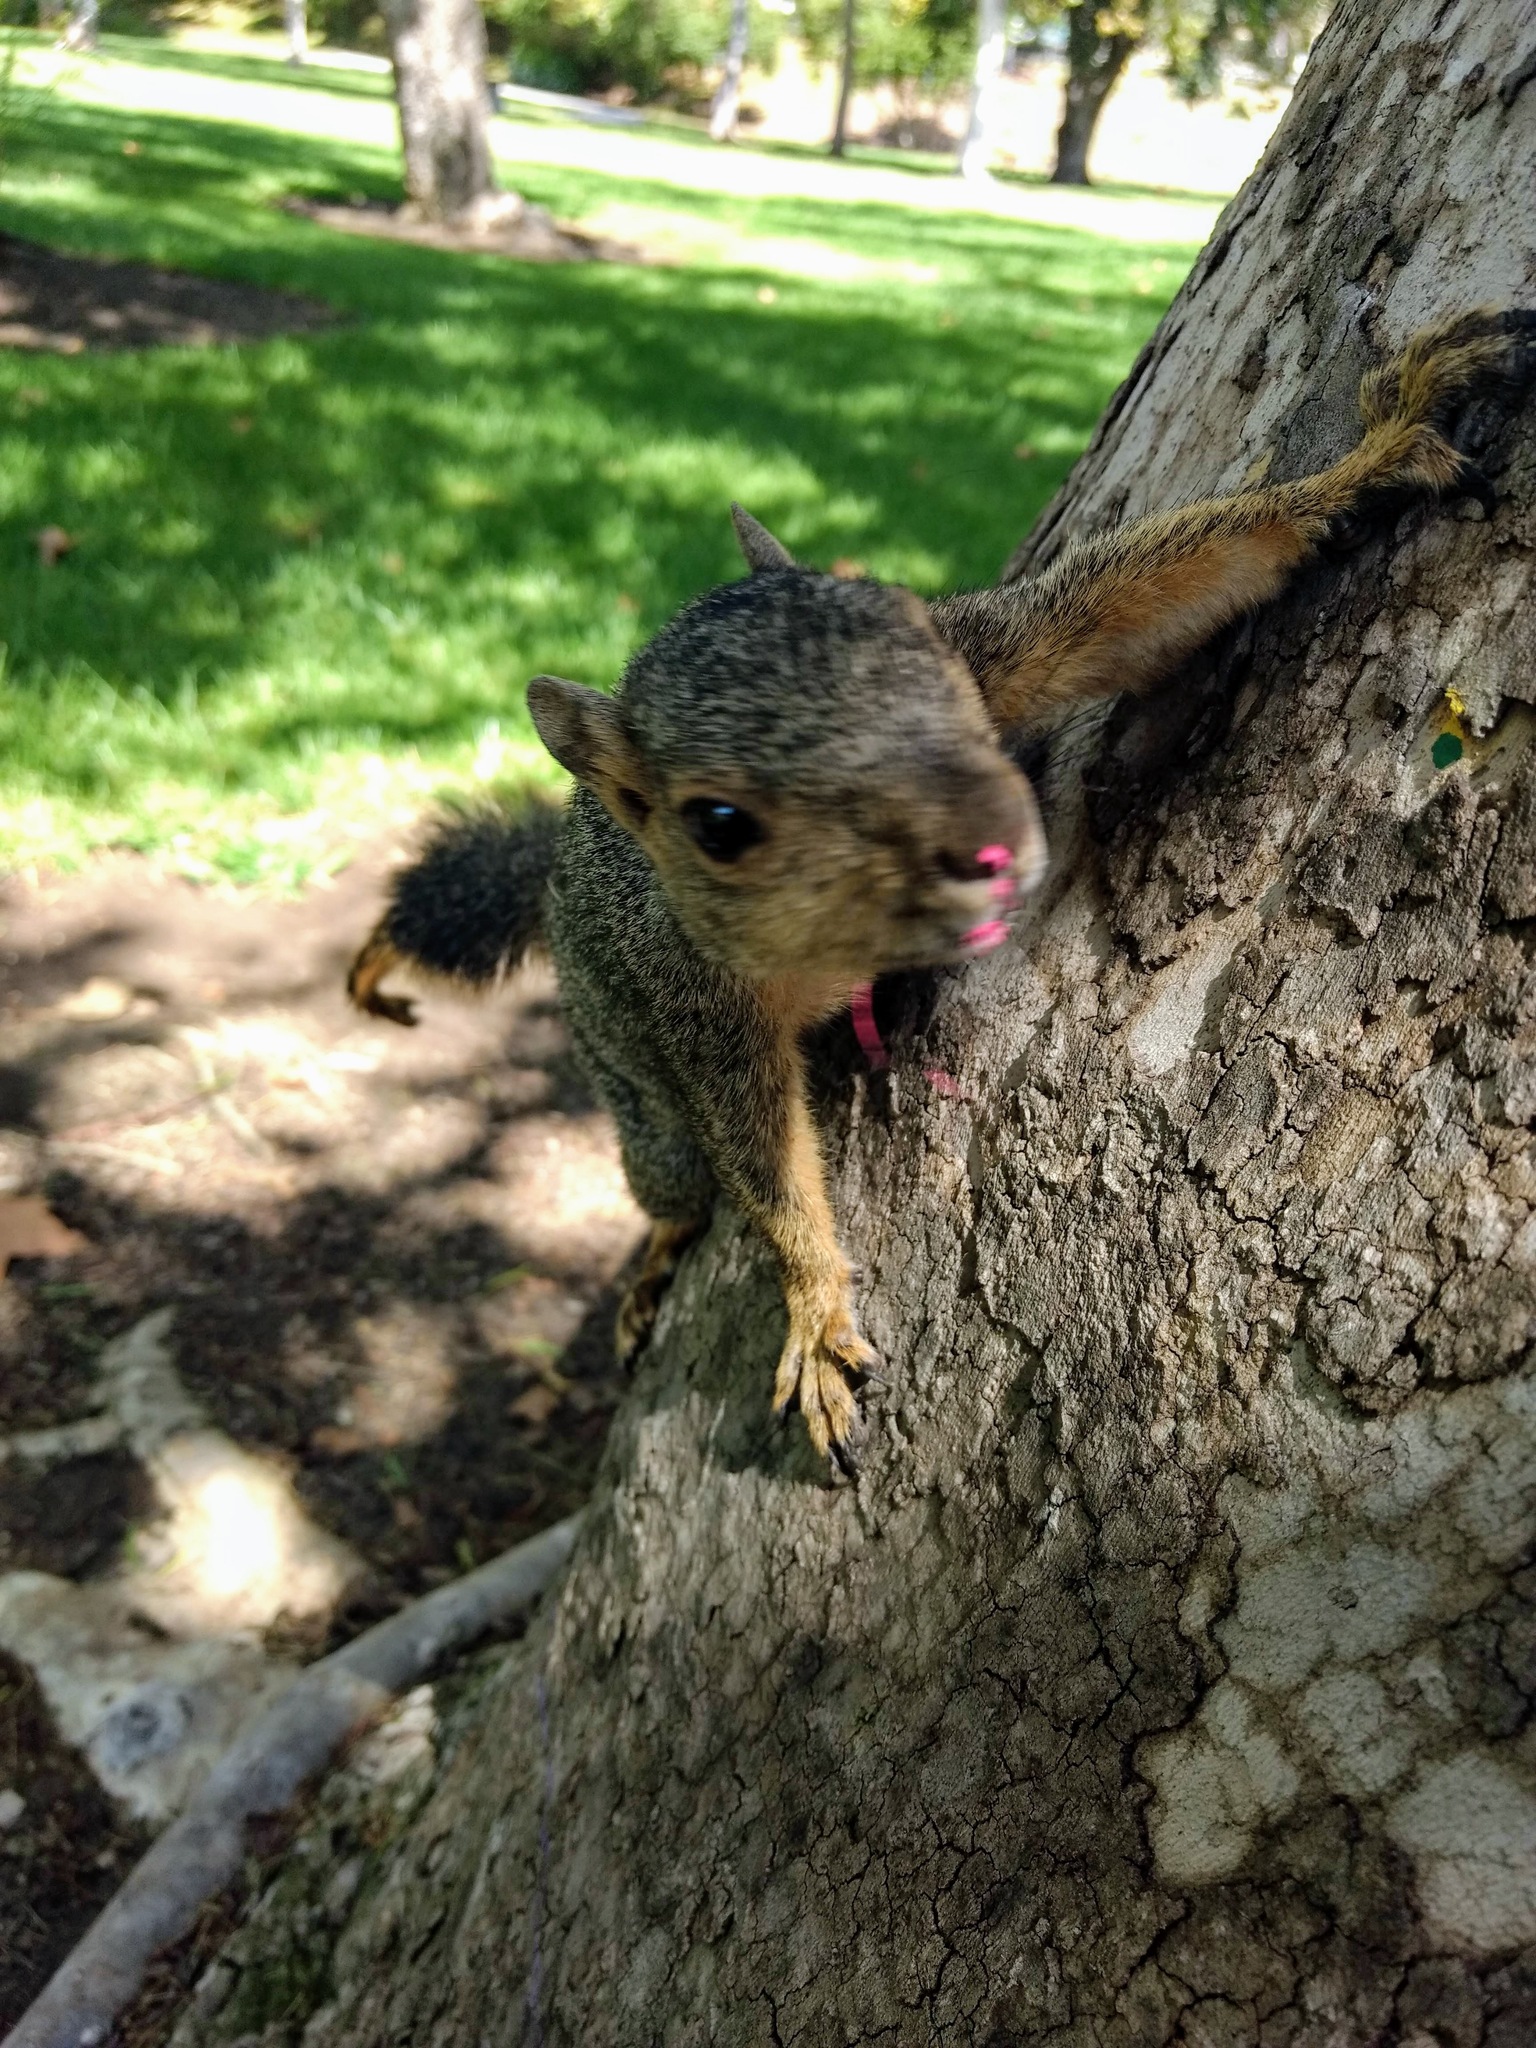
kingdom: Animalia
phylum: Chordata
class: Mammalia
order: Rodentia
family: Sciuridae
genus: Sciurus
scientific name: Sciurus niger
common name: Fox squirrel
